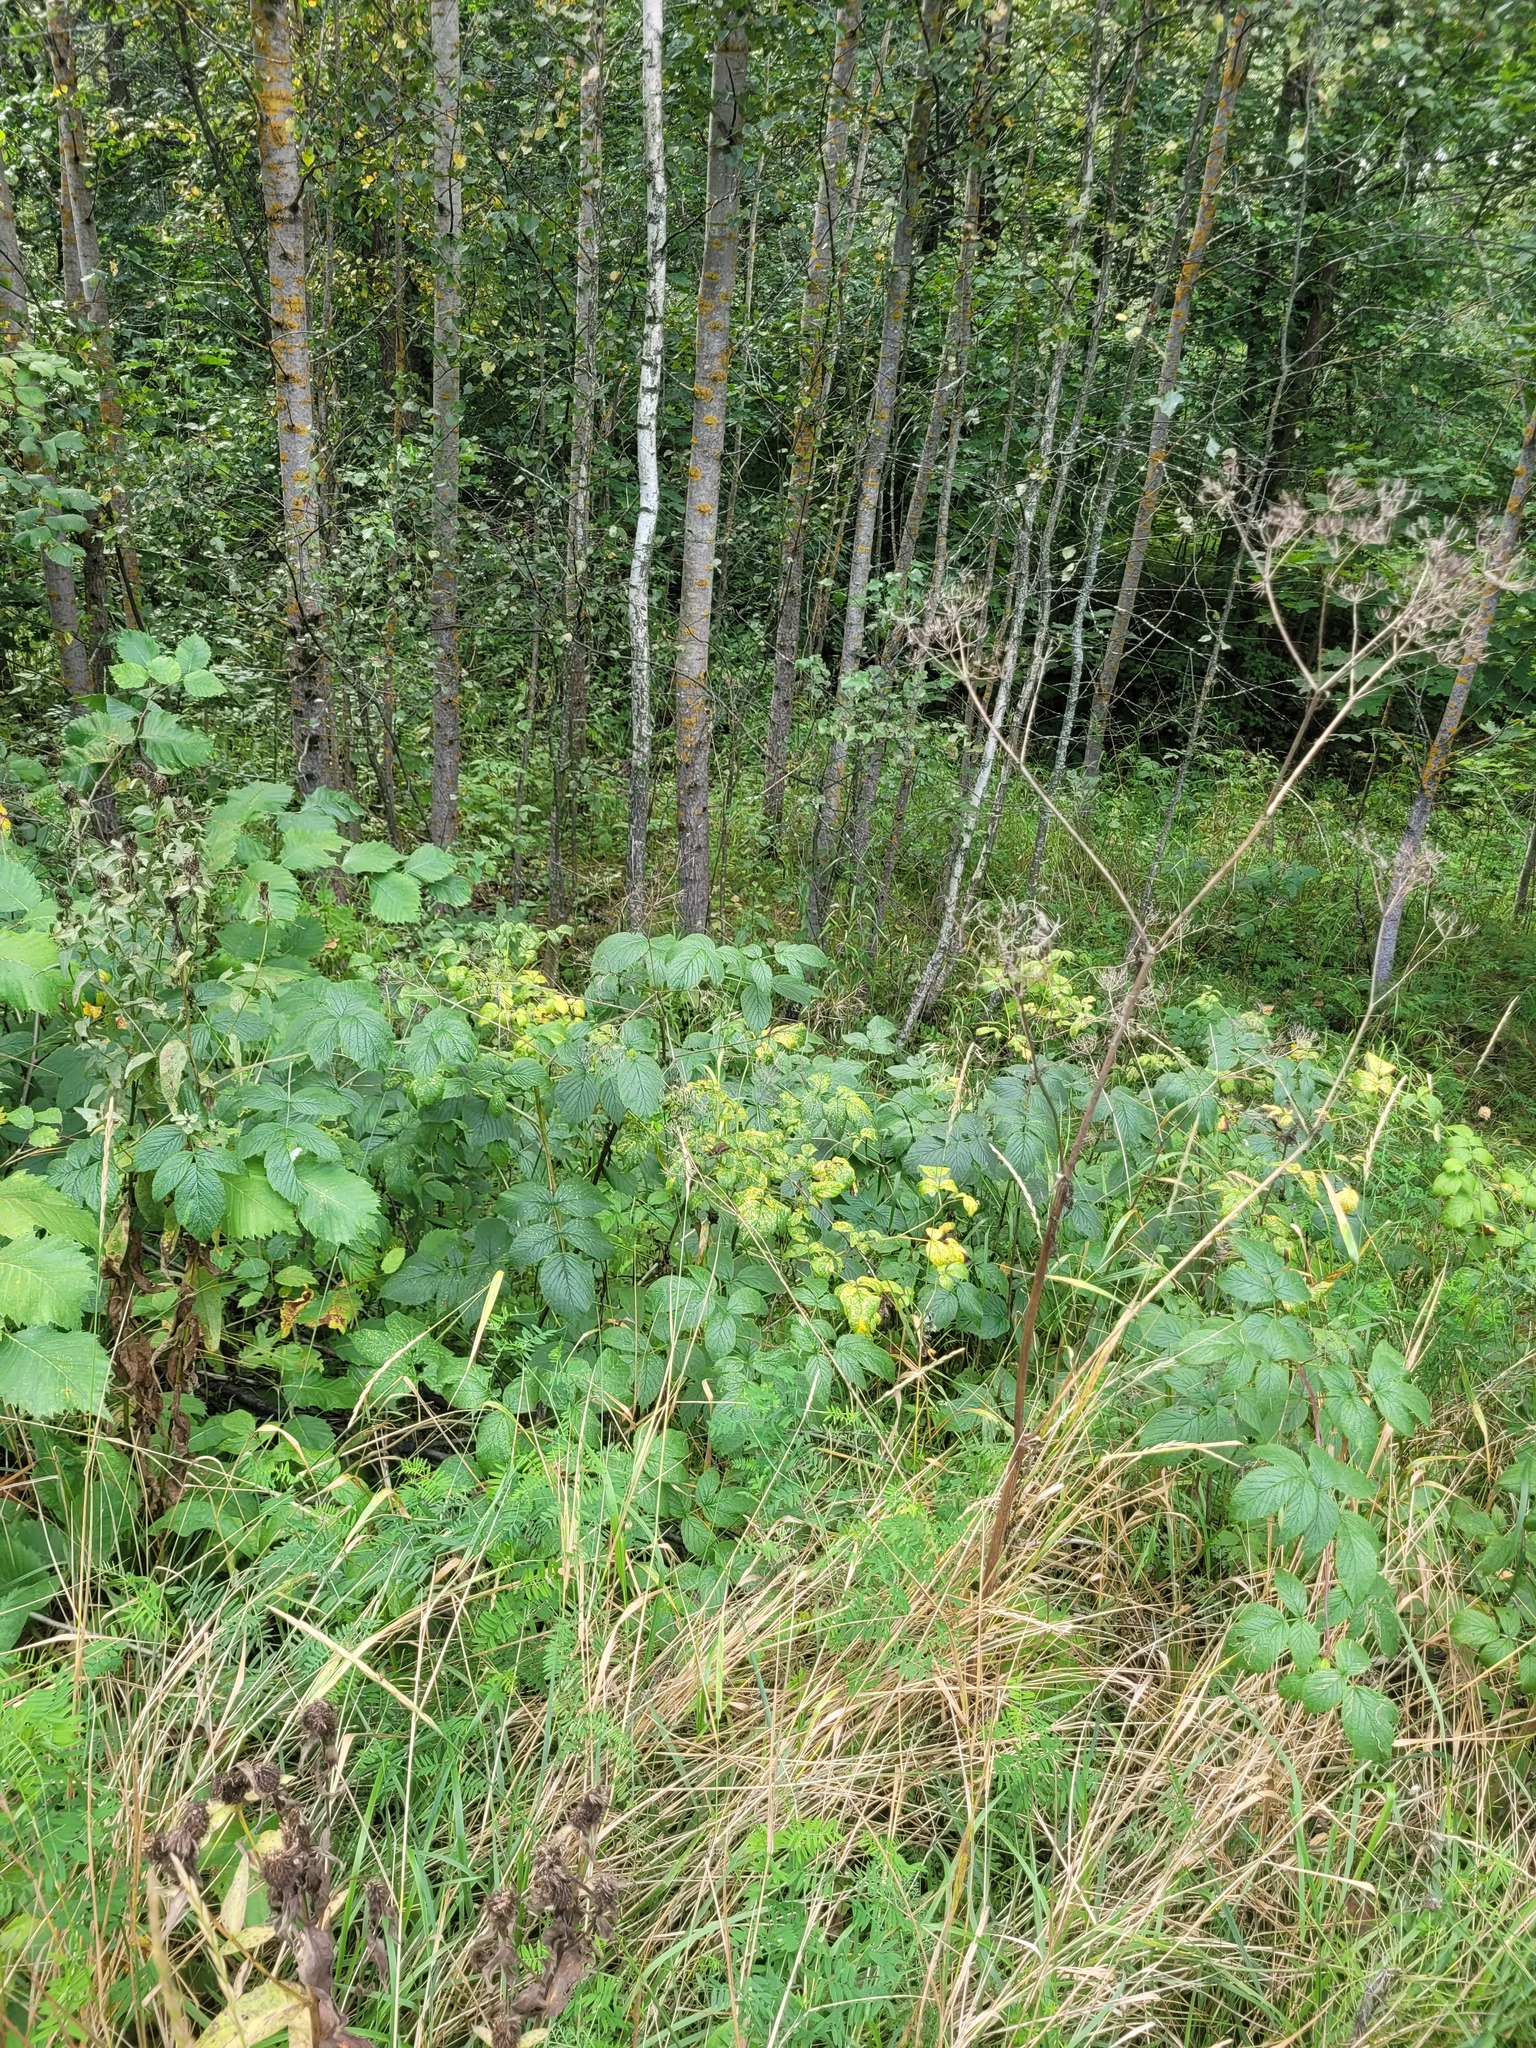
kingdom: Plantae
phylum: Tracheophyta
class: Magnoliopsida
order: Rosales
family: Rosaceae
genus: Rubus
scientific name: Rubus idaeus
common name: Raspberry
